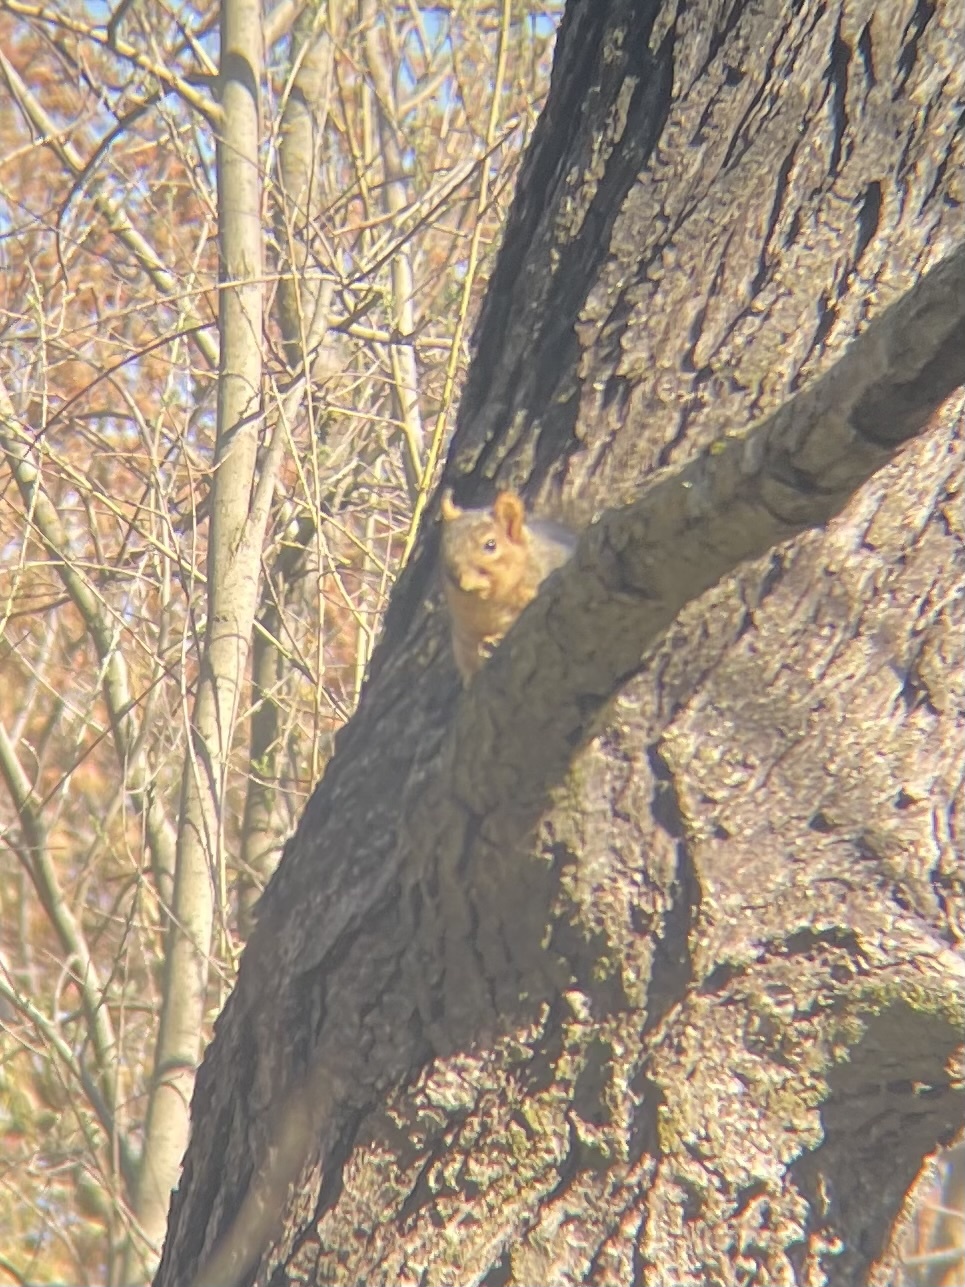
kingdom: Animalia
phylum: Chordata
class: Mammalia
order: Rodentia
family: Sciuridae
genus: Sciurus
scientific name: Sciurus niger
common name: Fox squirrel
